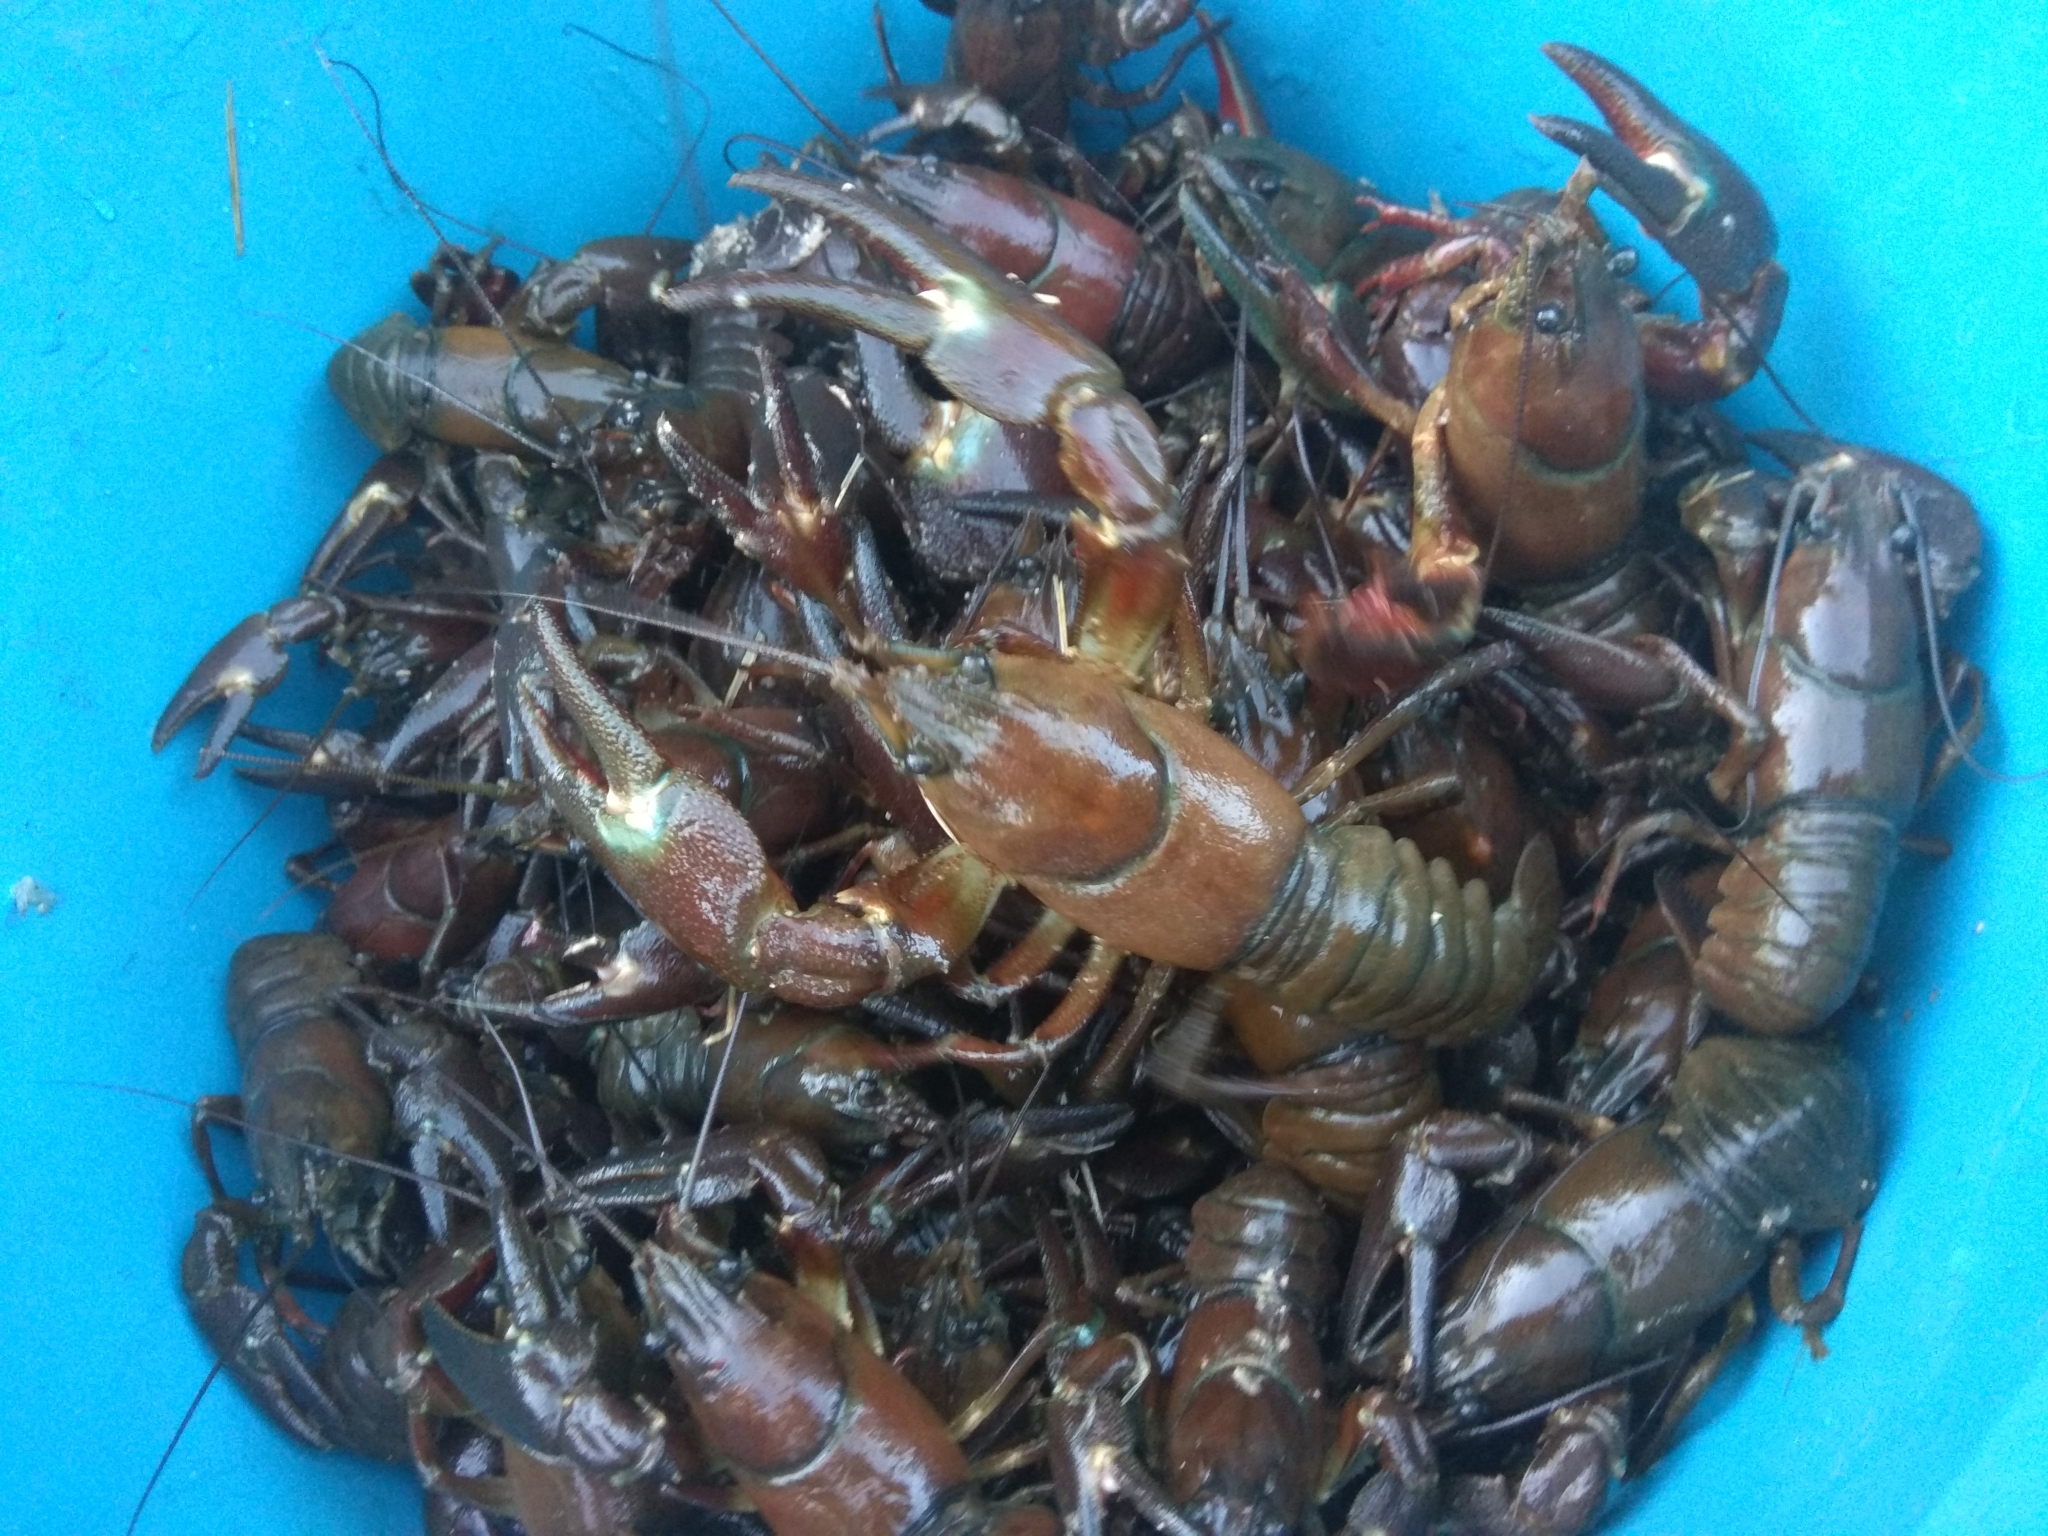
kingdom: Animalia
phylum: Arthropoda
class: Malacostraca
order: Decapoda
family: Astacidae
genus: Pacifastacus
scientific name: Pacifastacus leniusculus
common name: Signal crayfish
